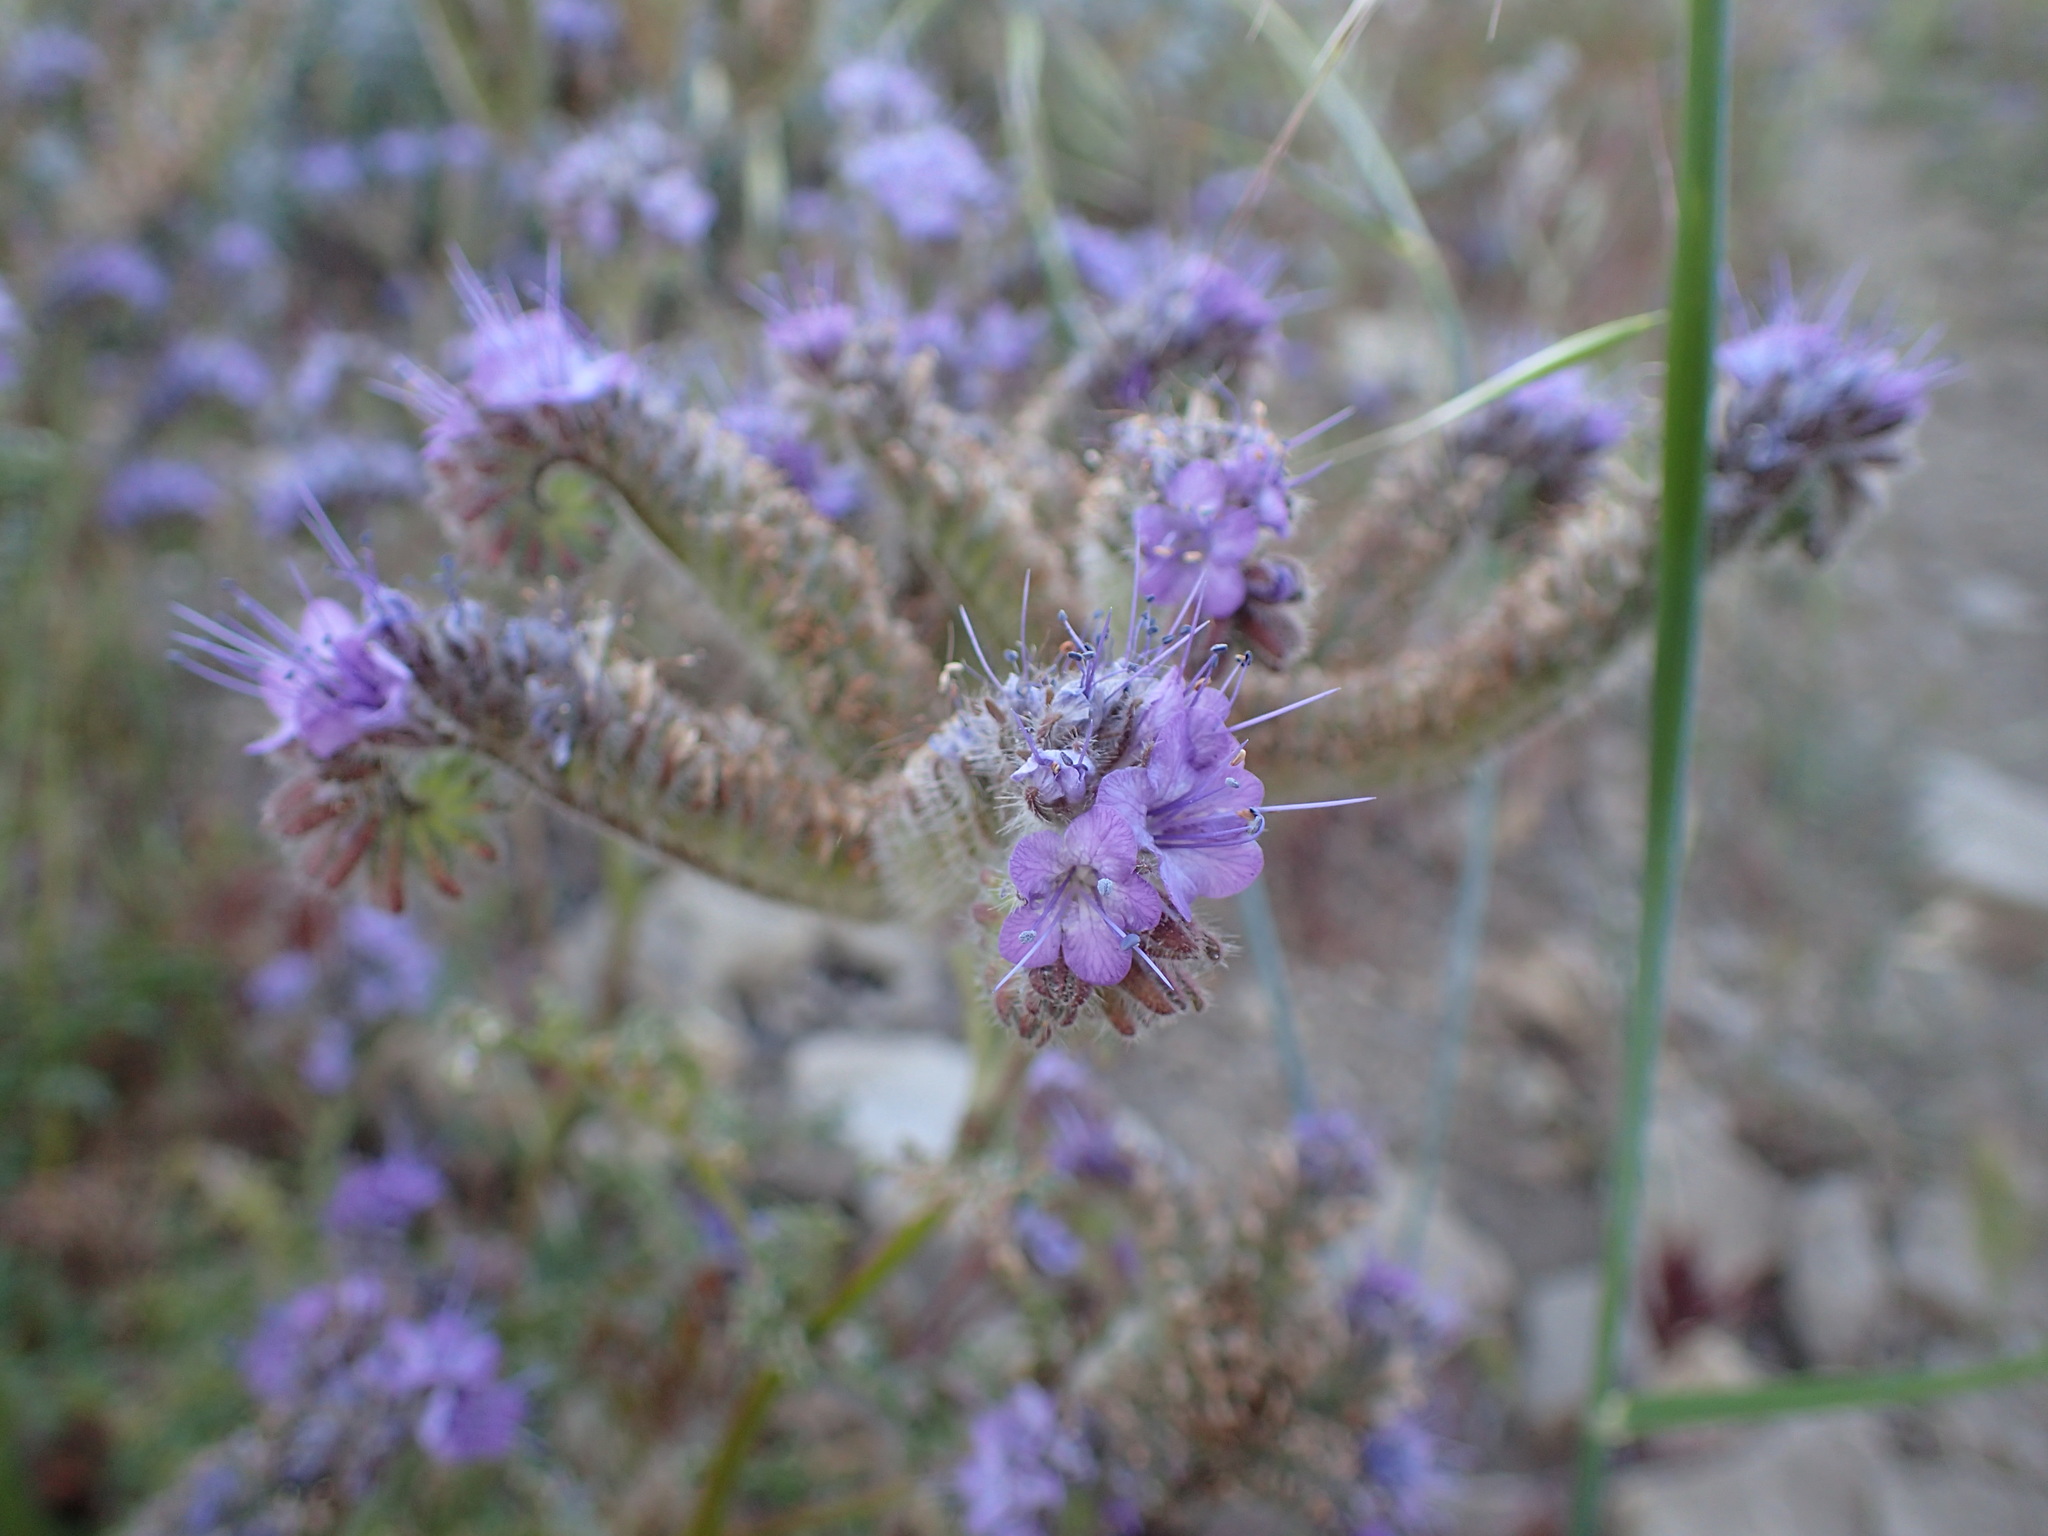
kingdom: Plantae
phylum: Tracheophyta
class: Magnoliopsida
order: Boraginales
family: Hydrophyllaceae
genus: Phacelia
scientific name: Phacelia tanacetifolia
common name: Phacelia
